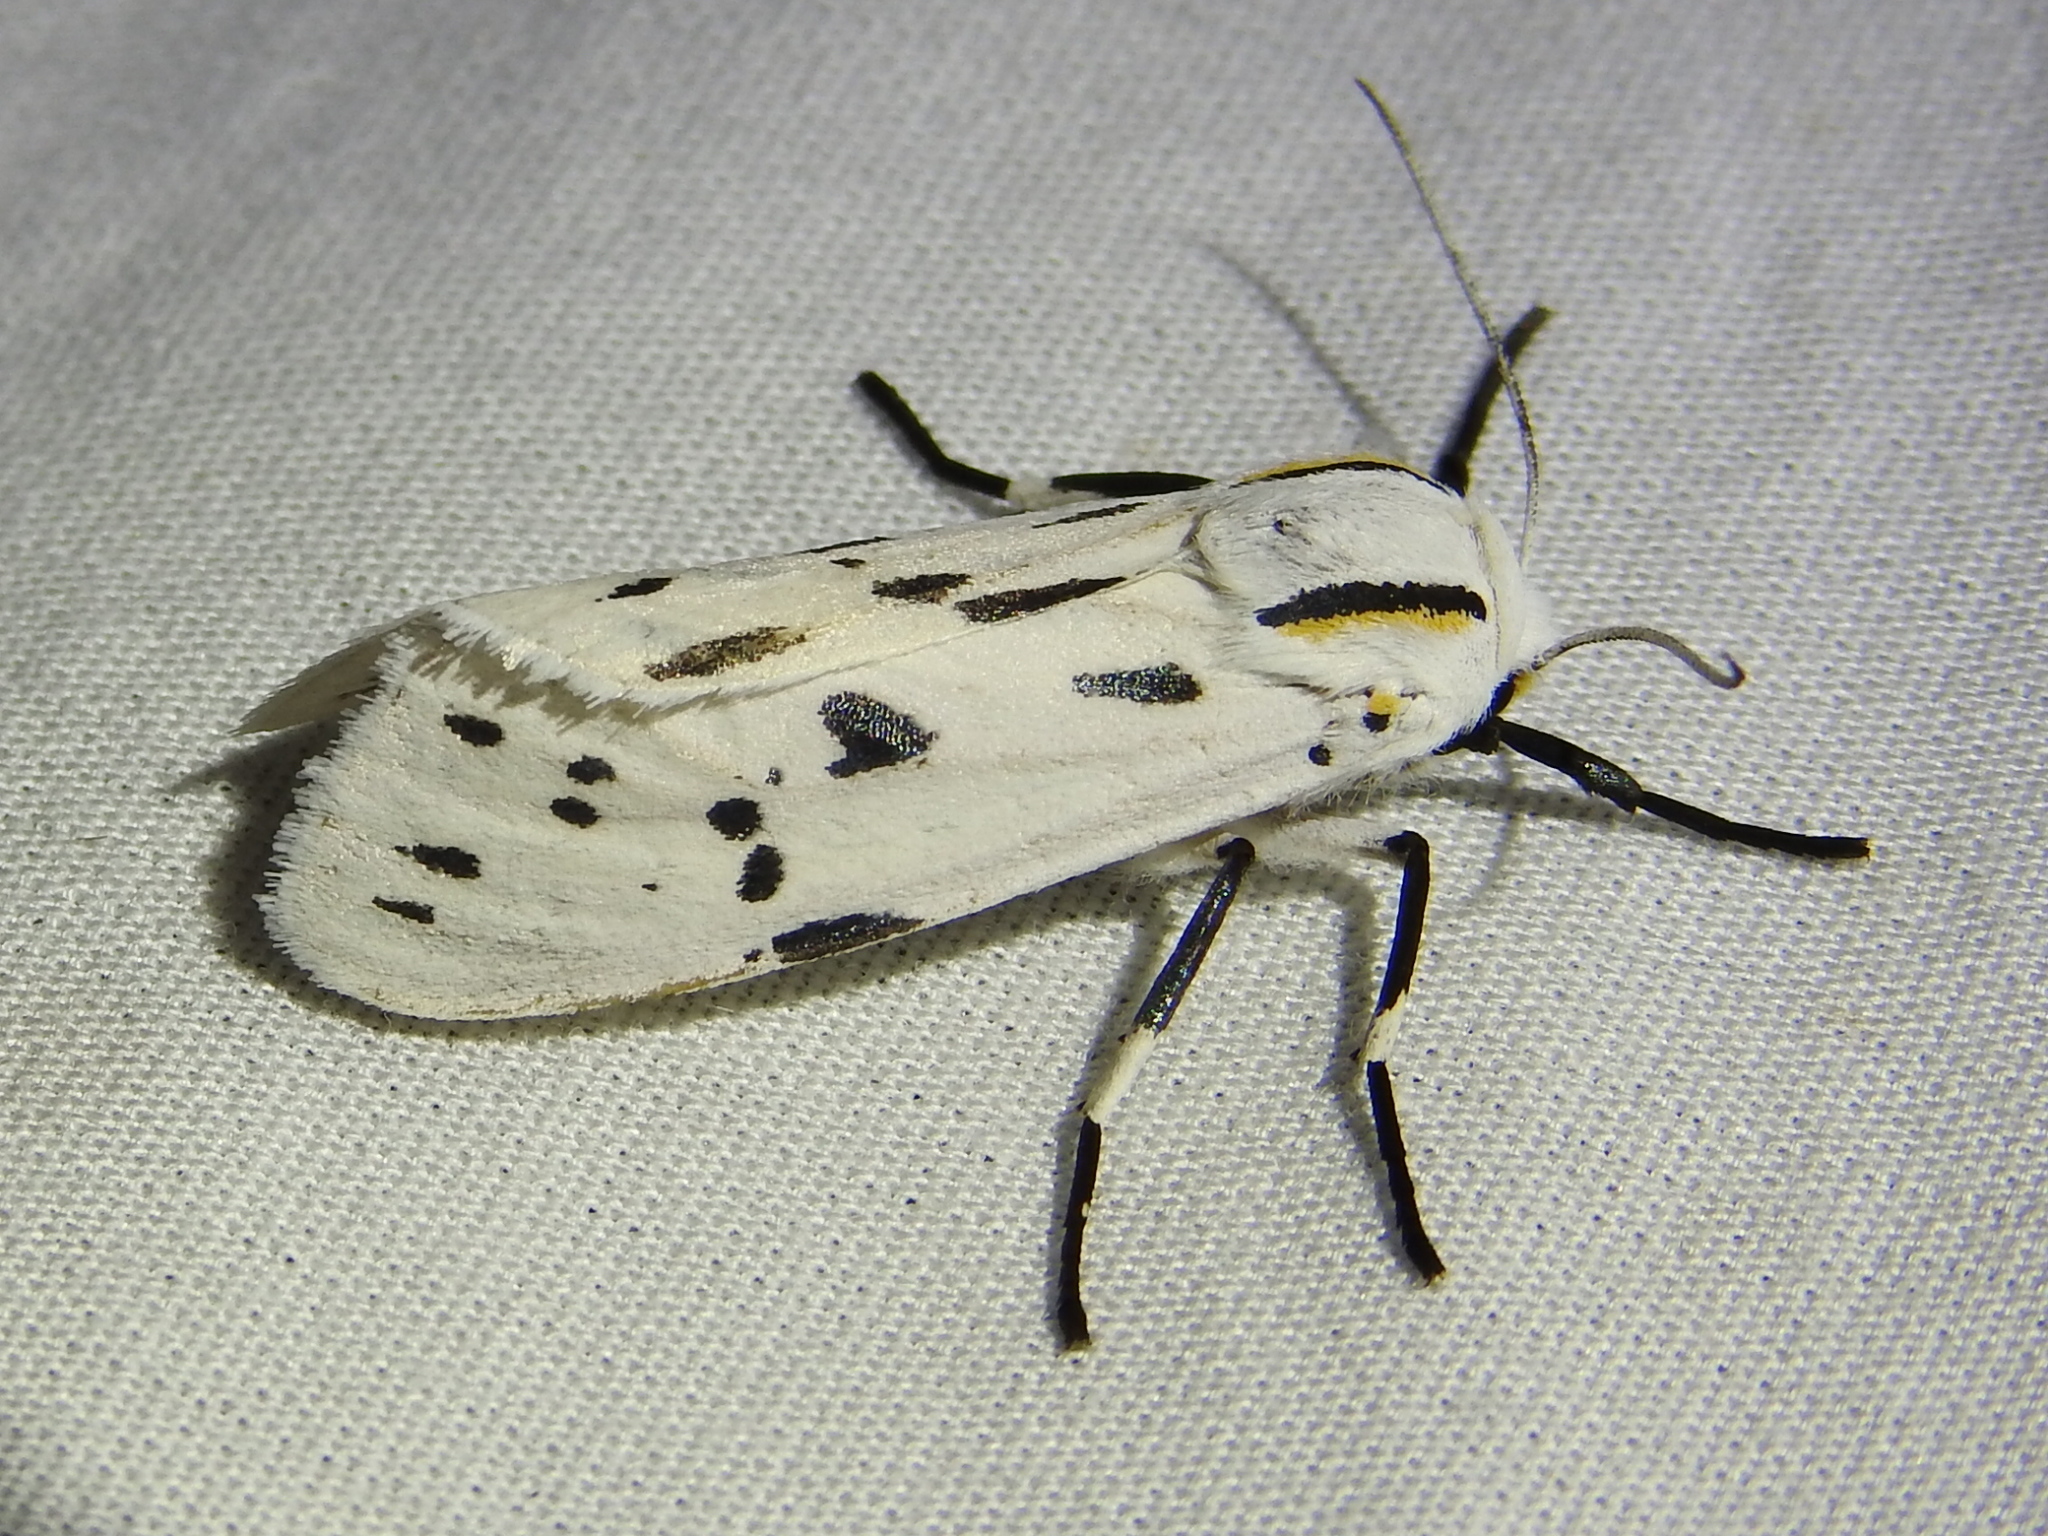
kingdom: Animalia
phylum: Arthropoda
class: Insecta
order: Lepidoptera
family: Erebidae
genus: Ectypia
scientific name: Ectypia bivittata
